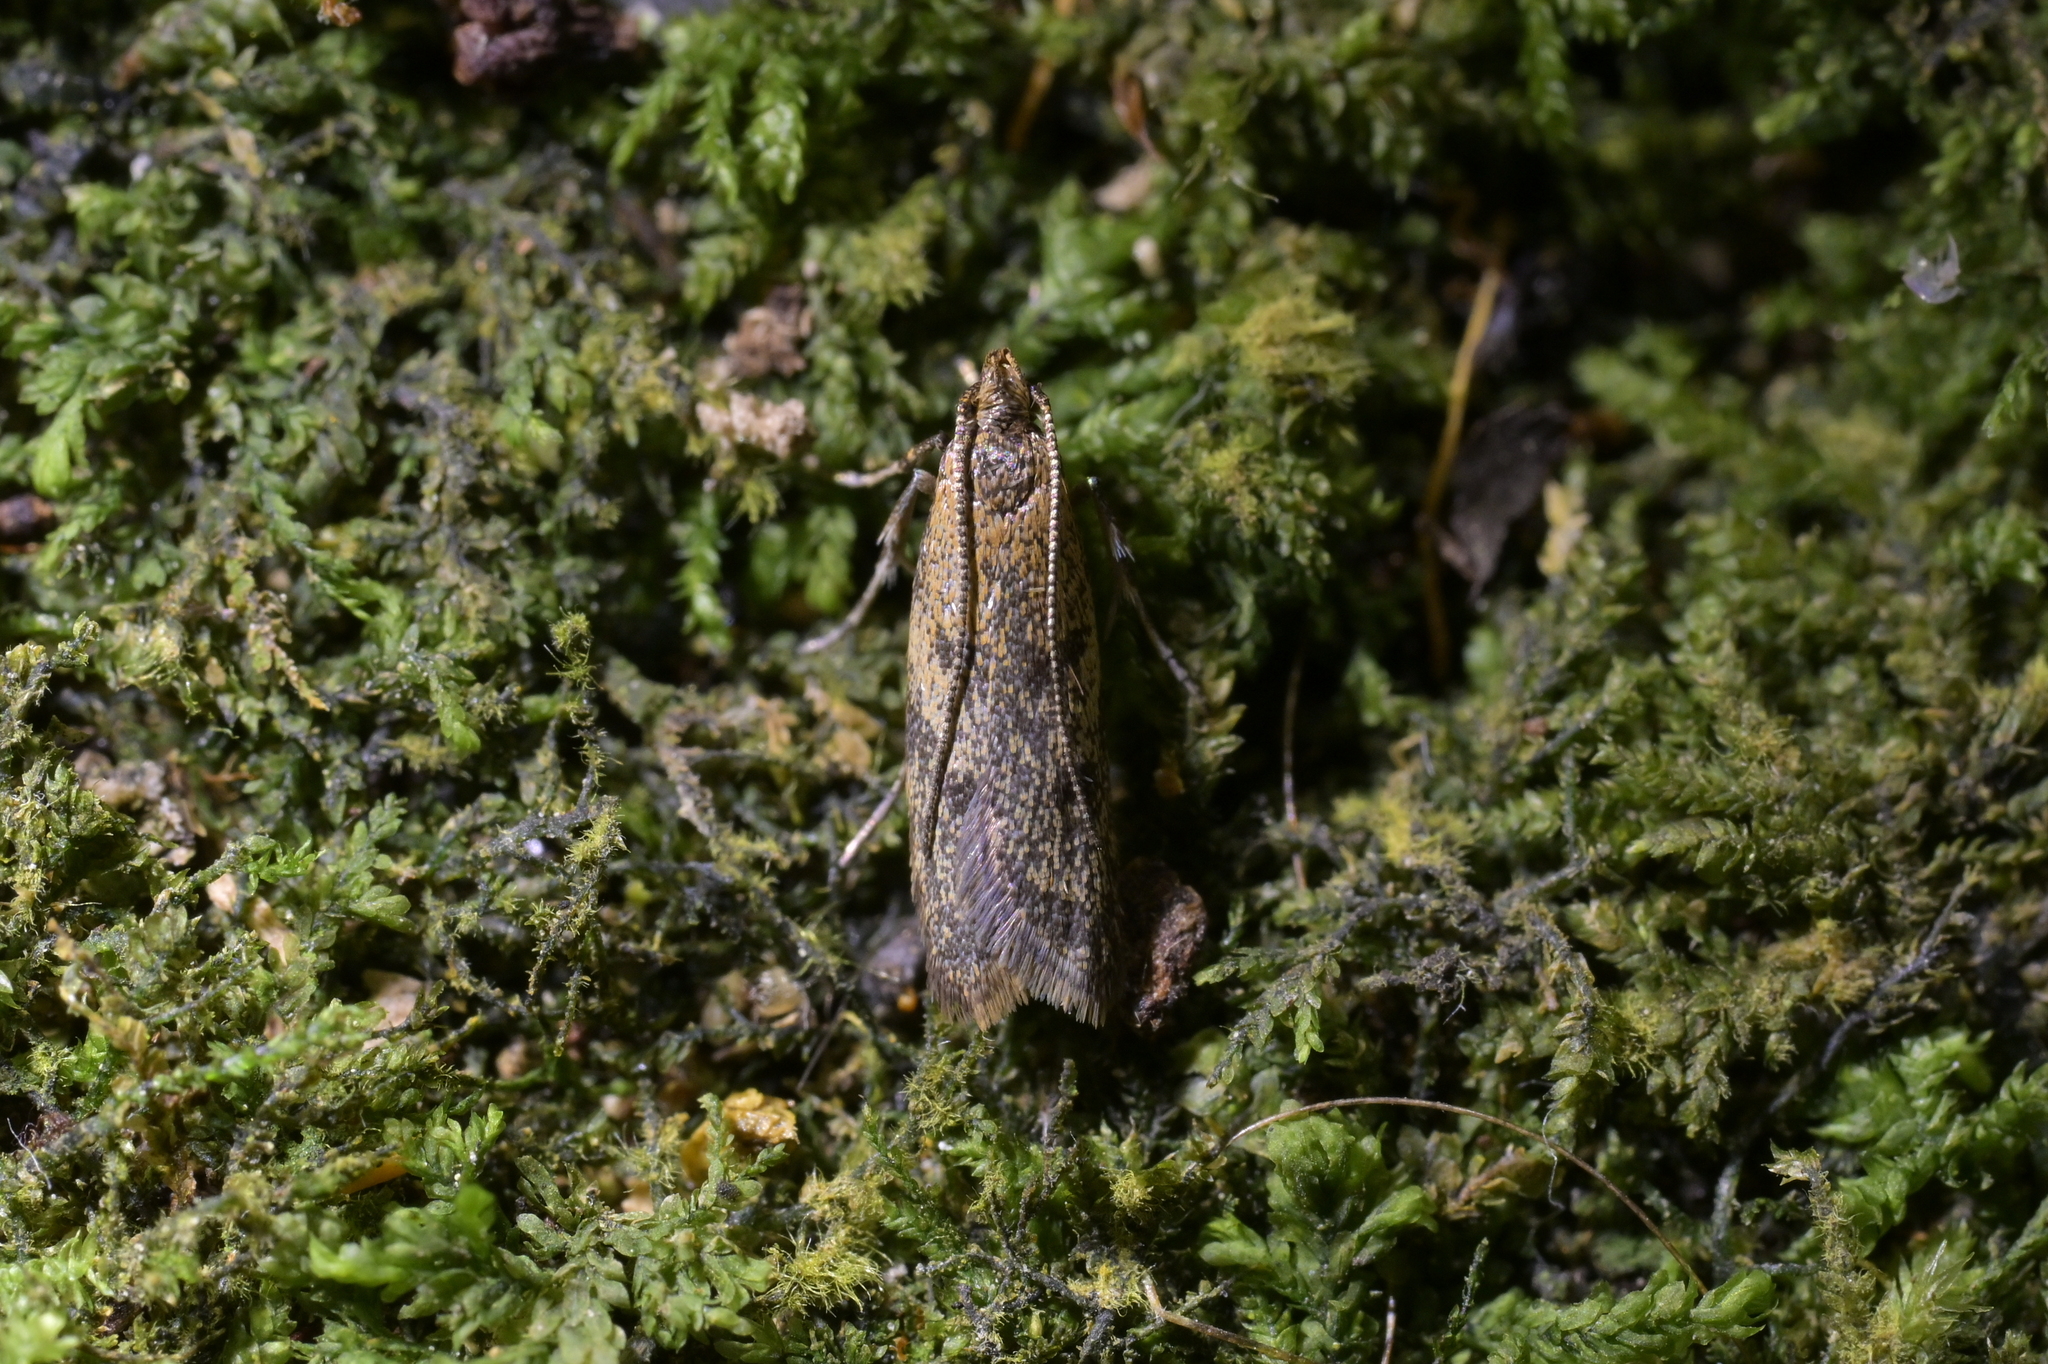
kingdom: Animalia
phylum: Arthropoda
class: Insecta
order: Lepidoptera
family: Oecophoridae
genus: Gymnobathra
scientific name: Gymnobathra tholodella
